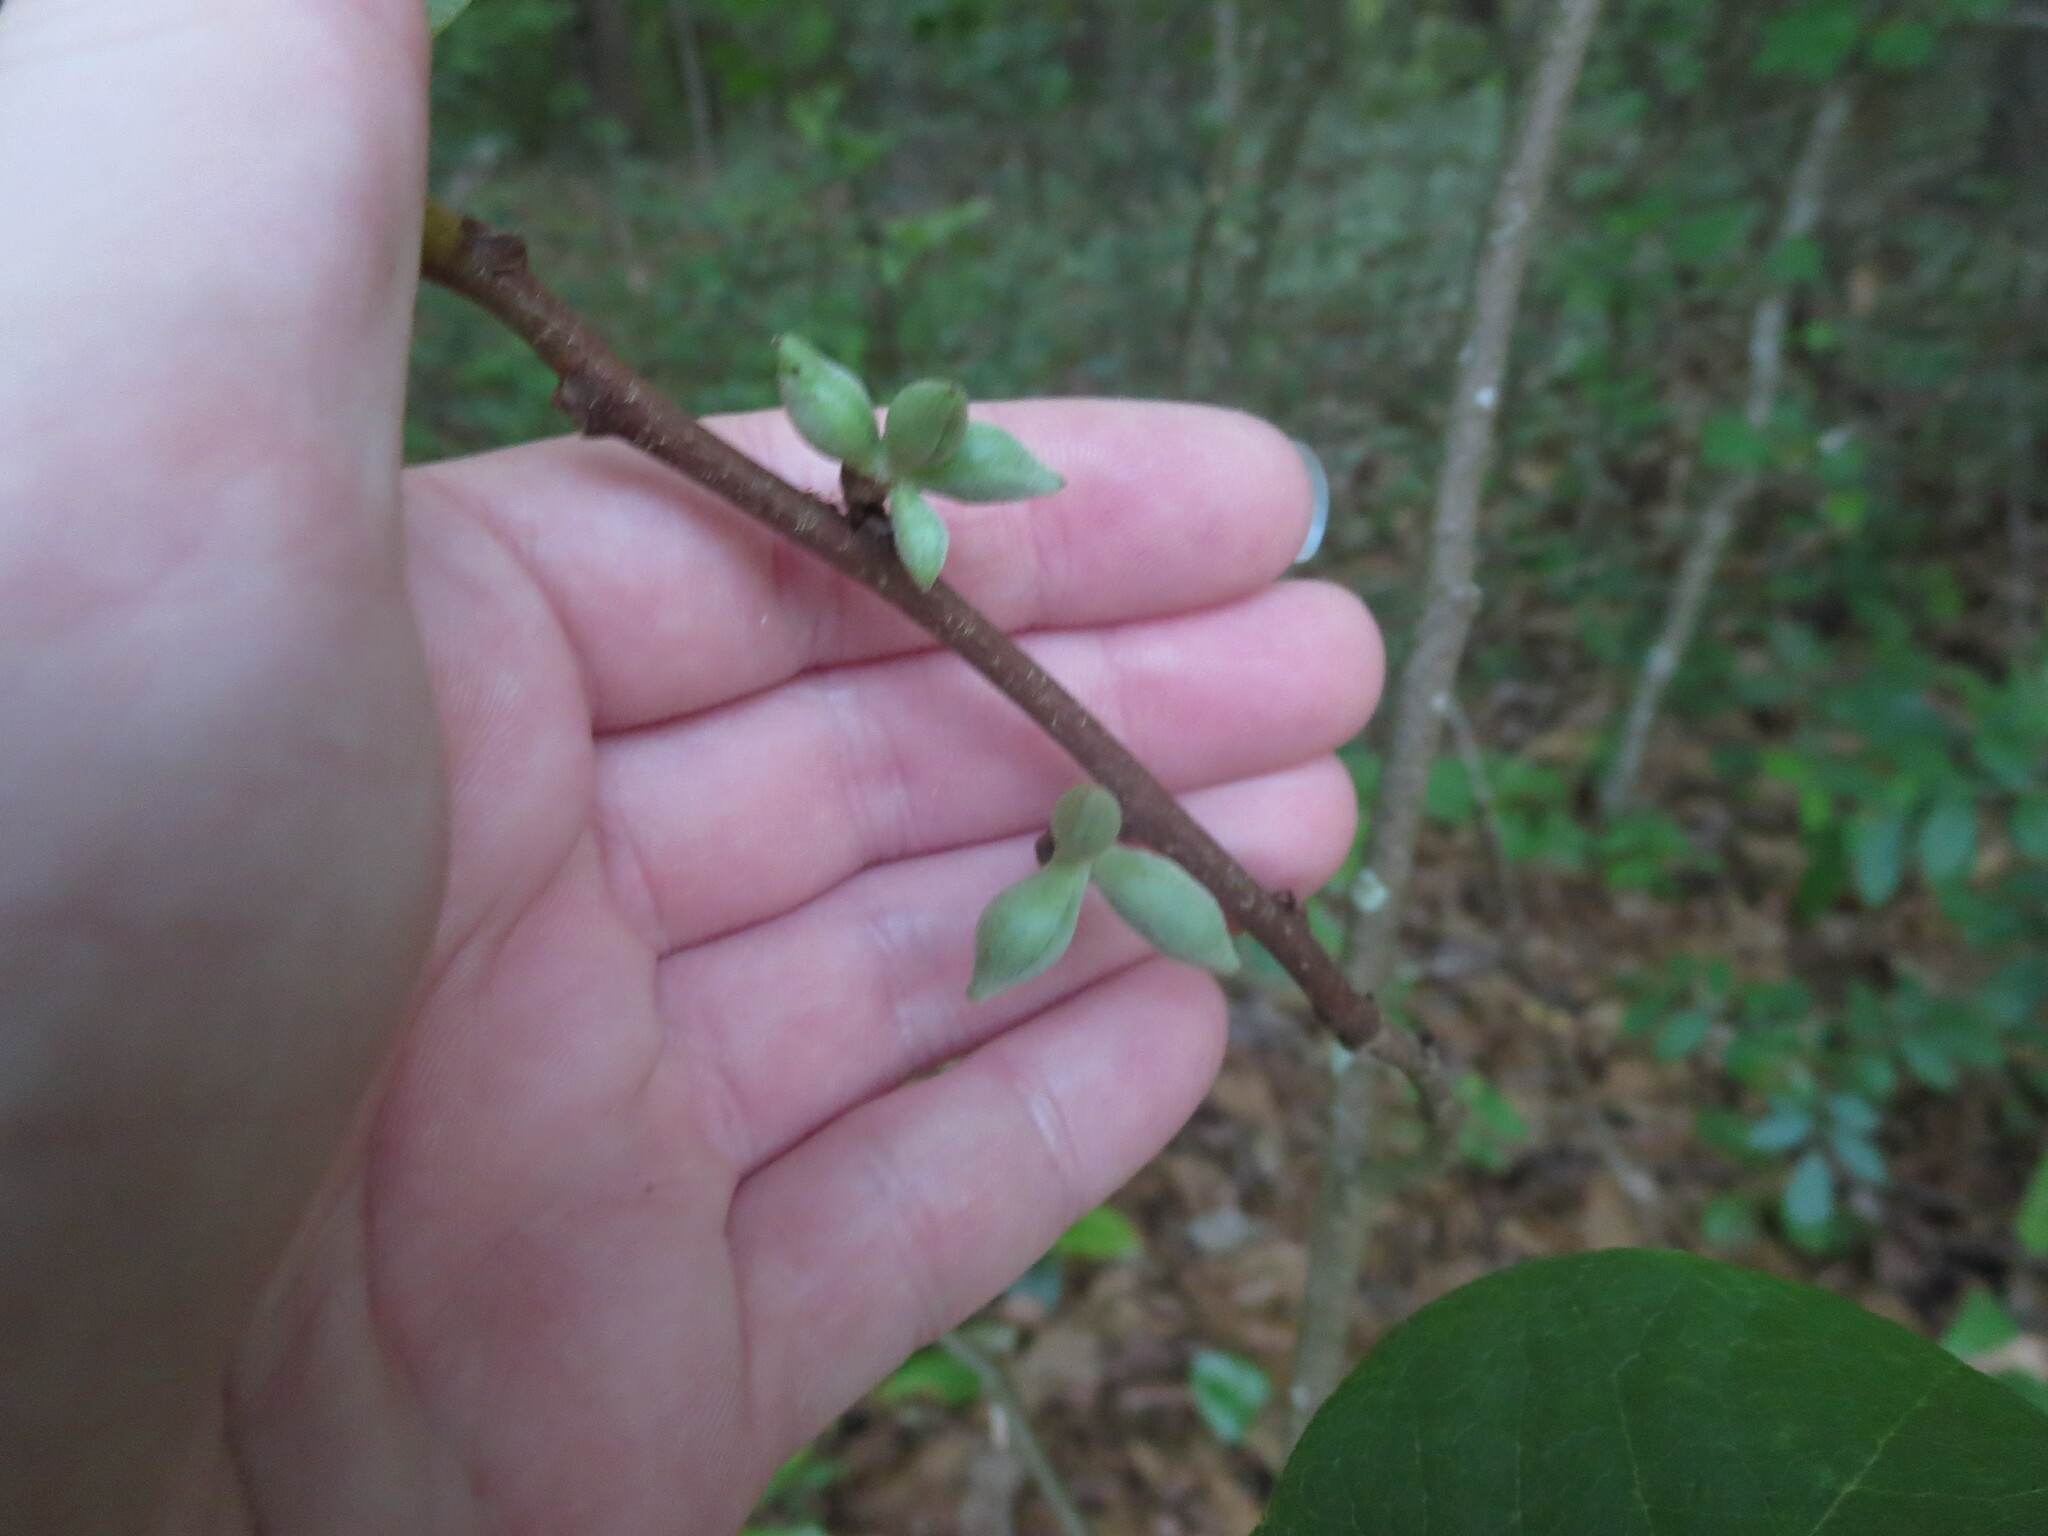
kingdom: Plantae
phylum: Tracheophyta
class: Magnoliopsida
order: Magnoliales
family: Annonaceae
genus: Asimina
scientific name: Asimina parviflora
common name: Dwarf pawpaw
